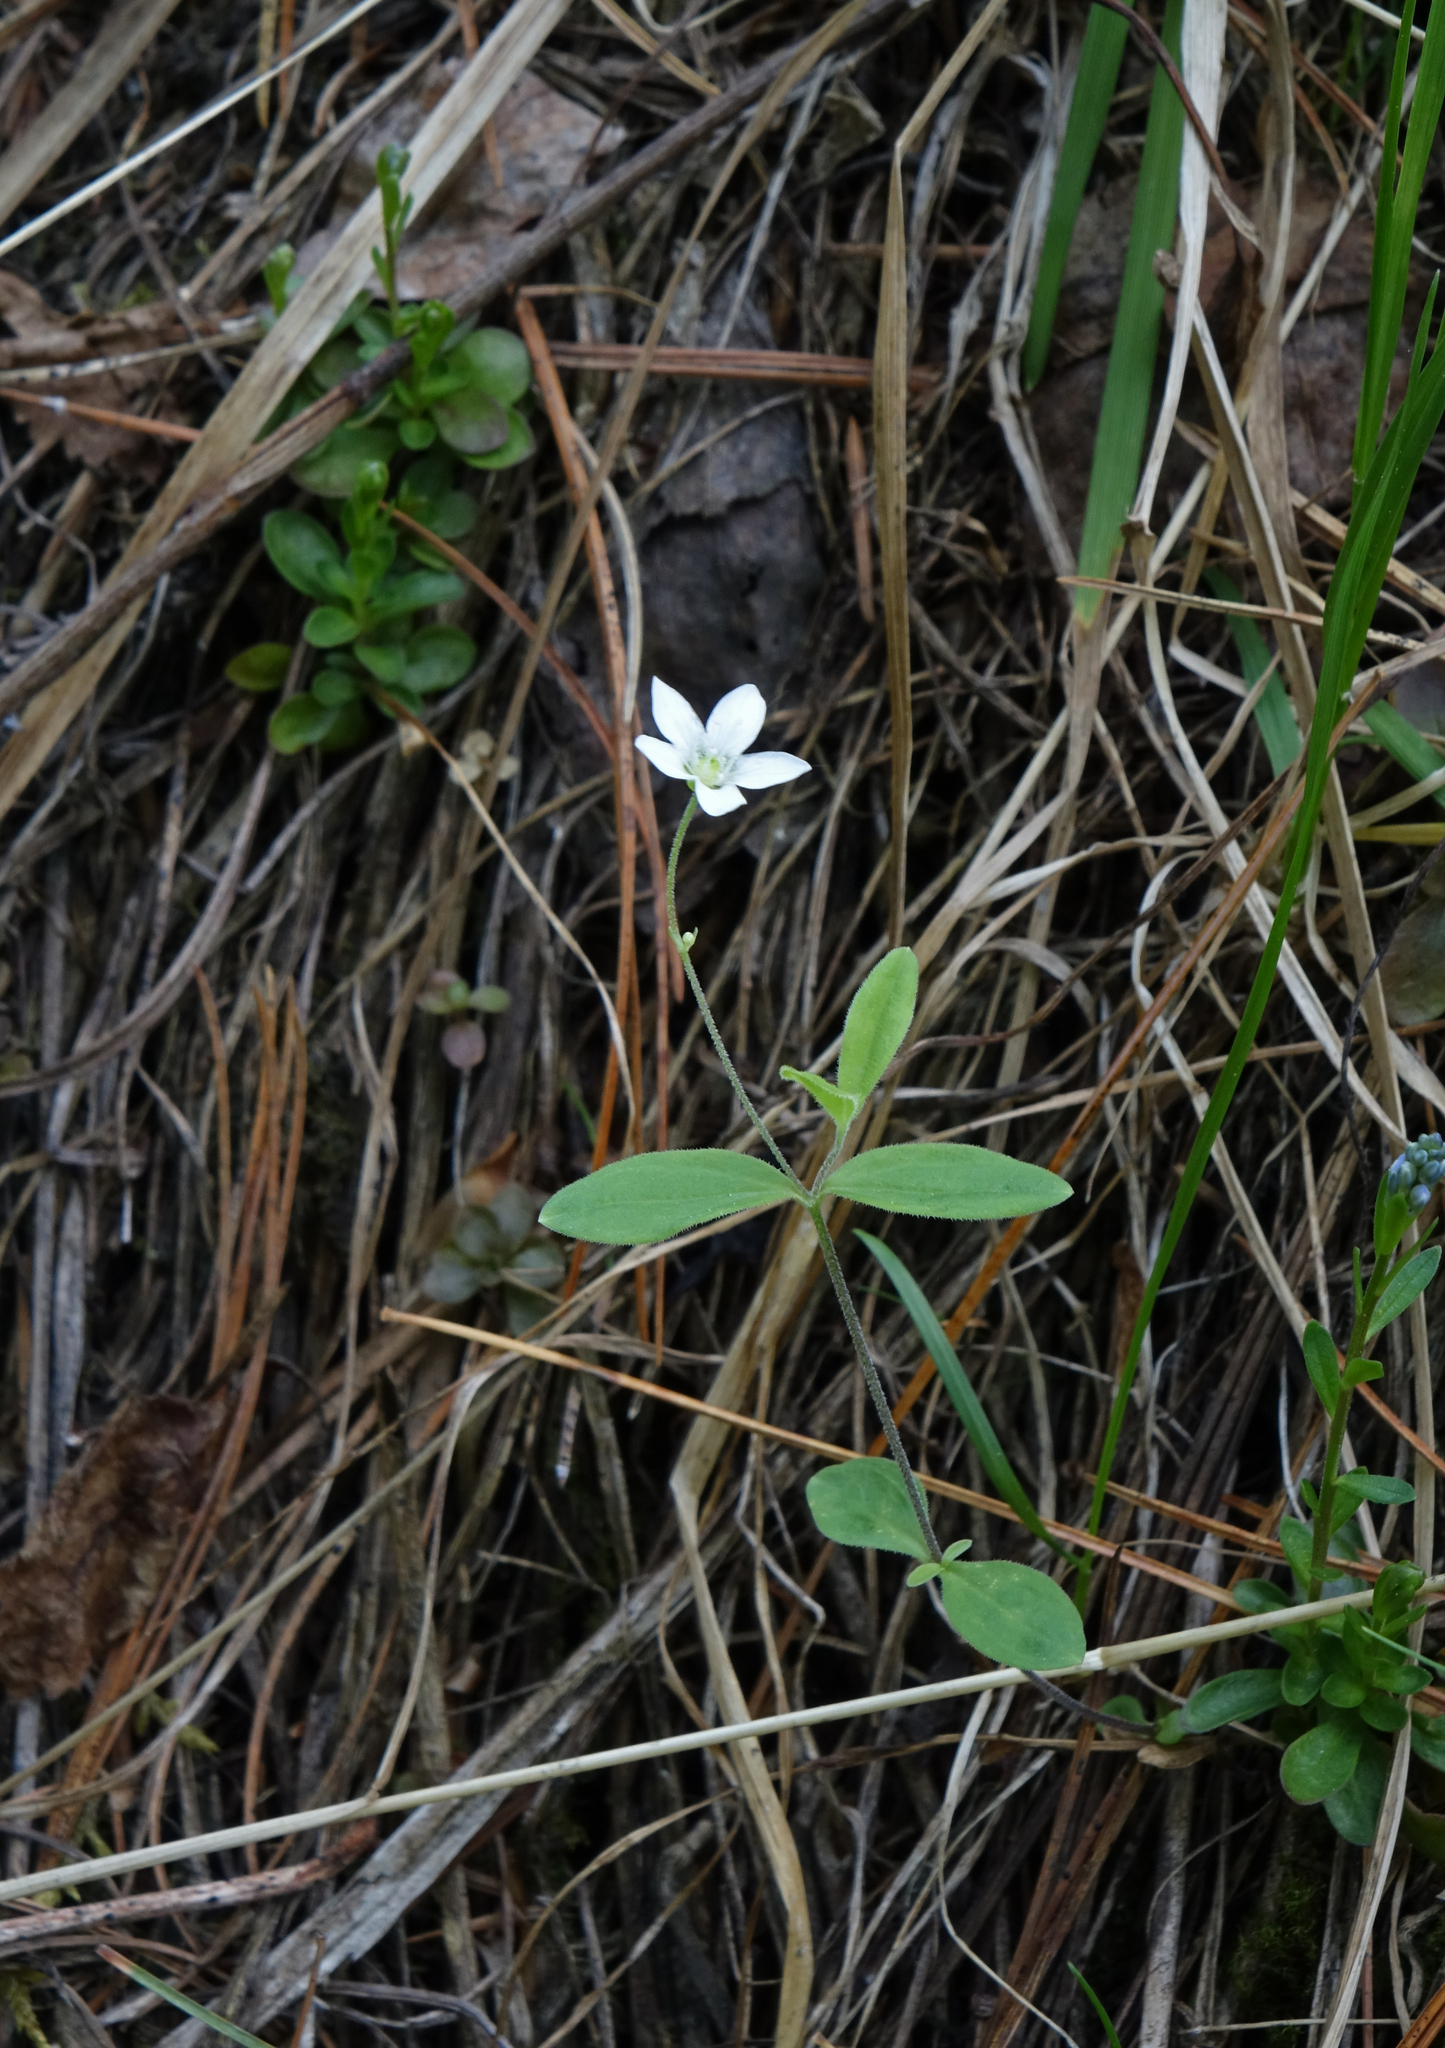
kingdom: Plantae
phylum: Tracheophyta
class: Magnoliopsida
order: Caryophyllales
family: Caryophyllaceae
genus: Moehringia
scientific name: Moehringia lateriflora
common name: Blunt-leaved sandwort
